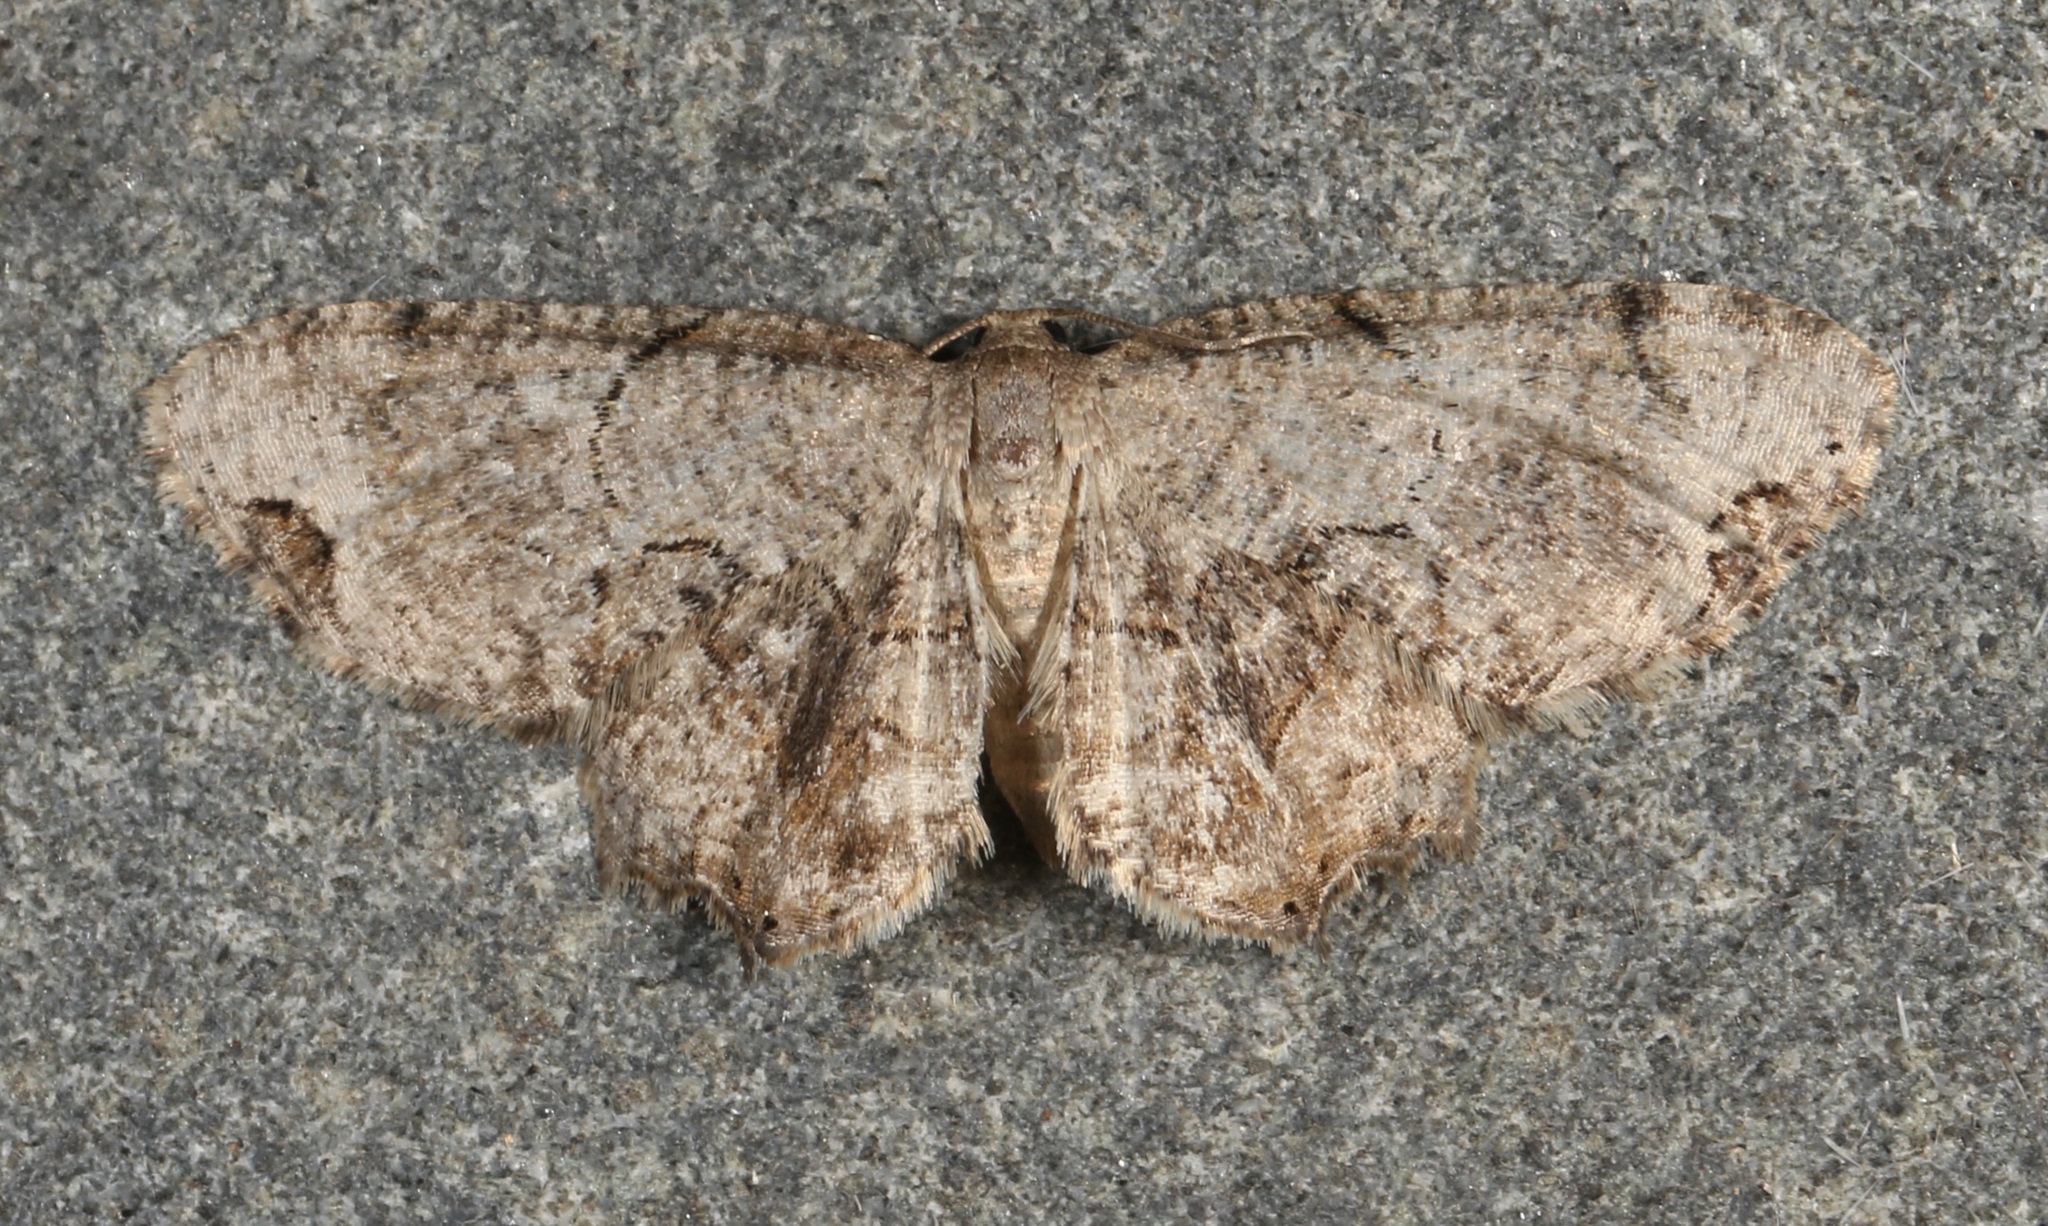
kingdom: Animalia
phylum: Arthropoda
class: Insecta
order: Lepidoptera
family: Uraniidae
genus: Epiplema
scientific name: Epiplema Callizzia amorata
